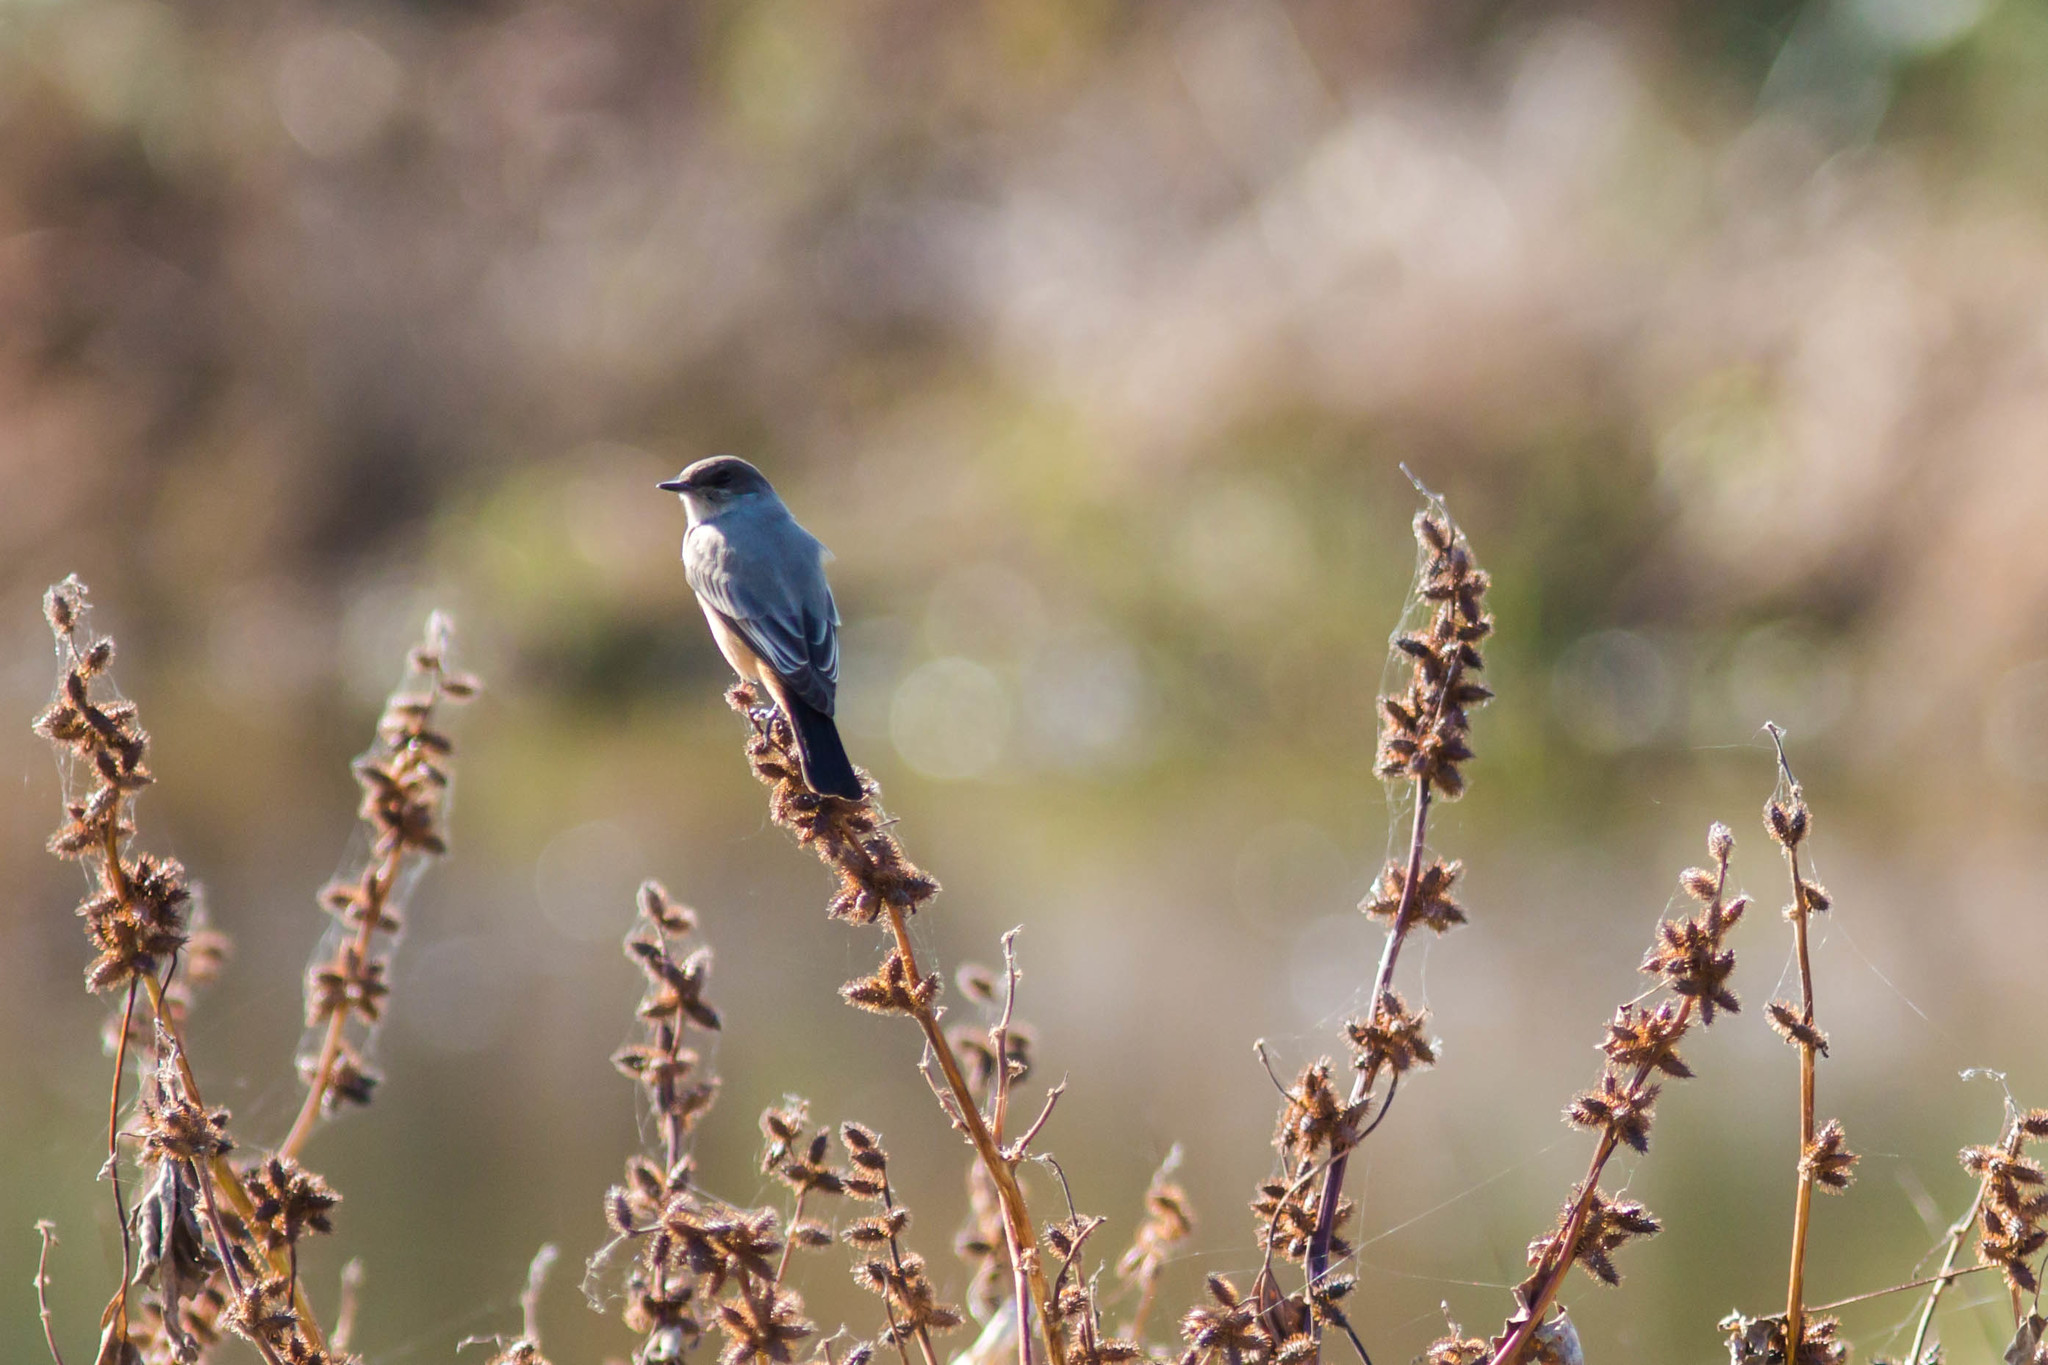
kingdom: Animalia
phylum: Chordata
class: Aves
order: Passeriformes
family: Tyrannidae
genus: Sayornis
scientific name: Sayornis saya
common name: Say's phoebe
